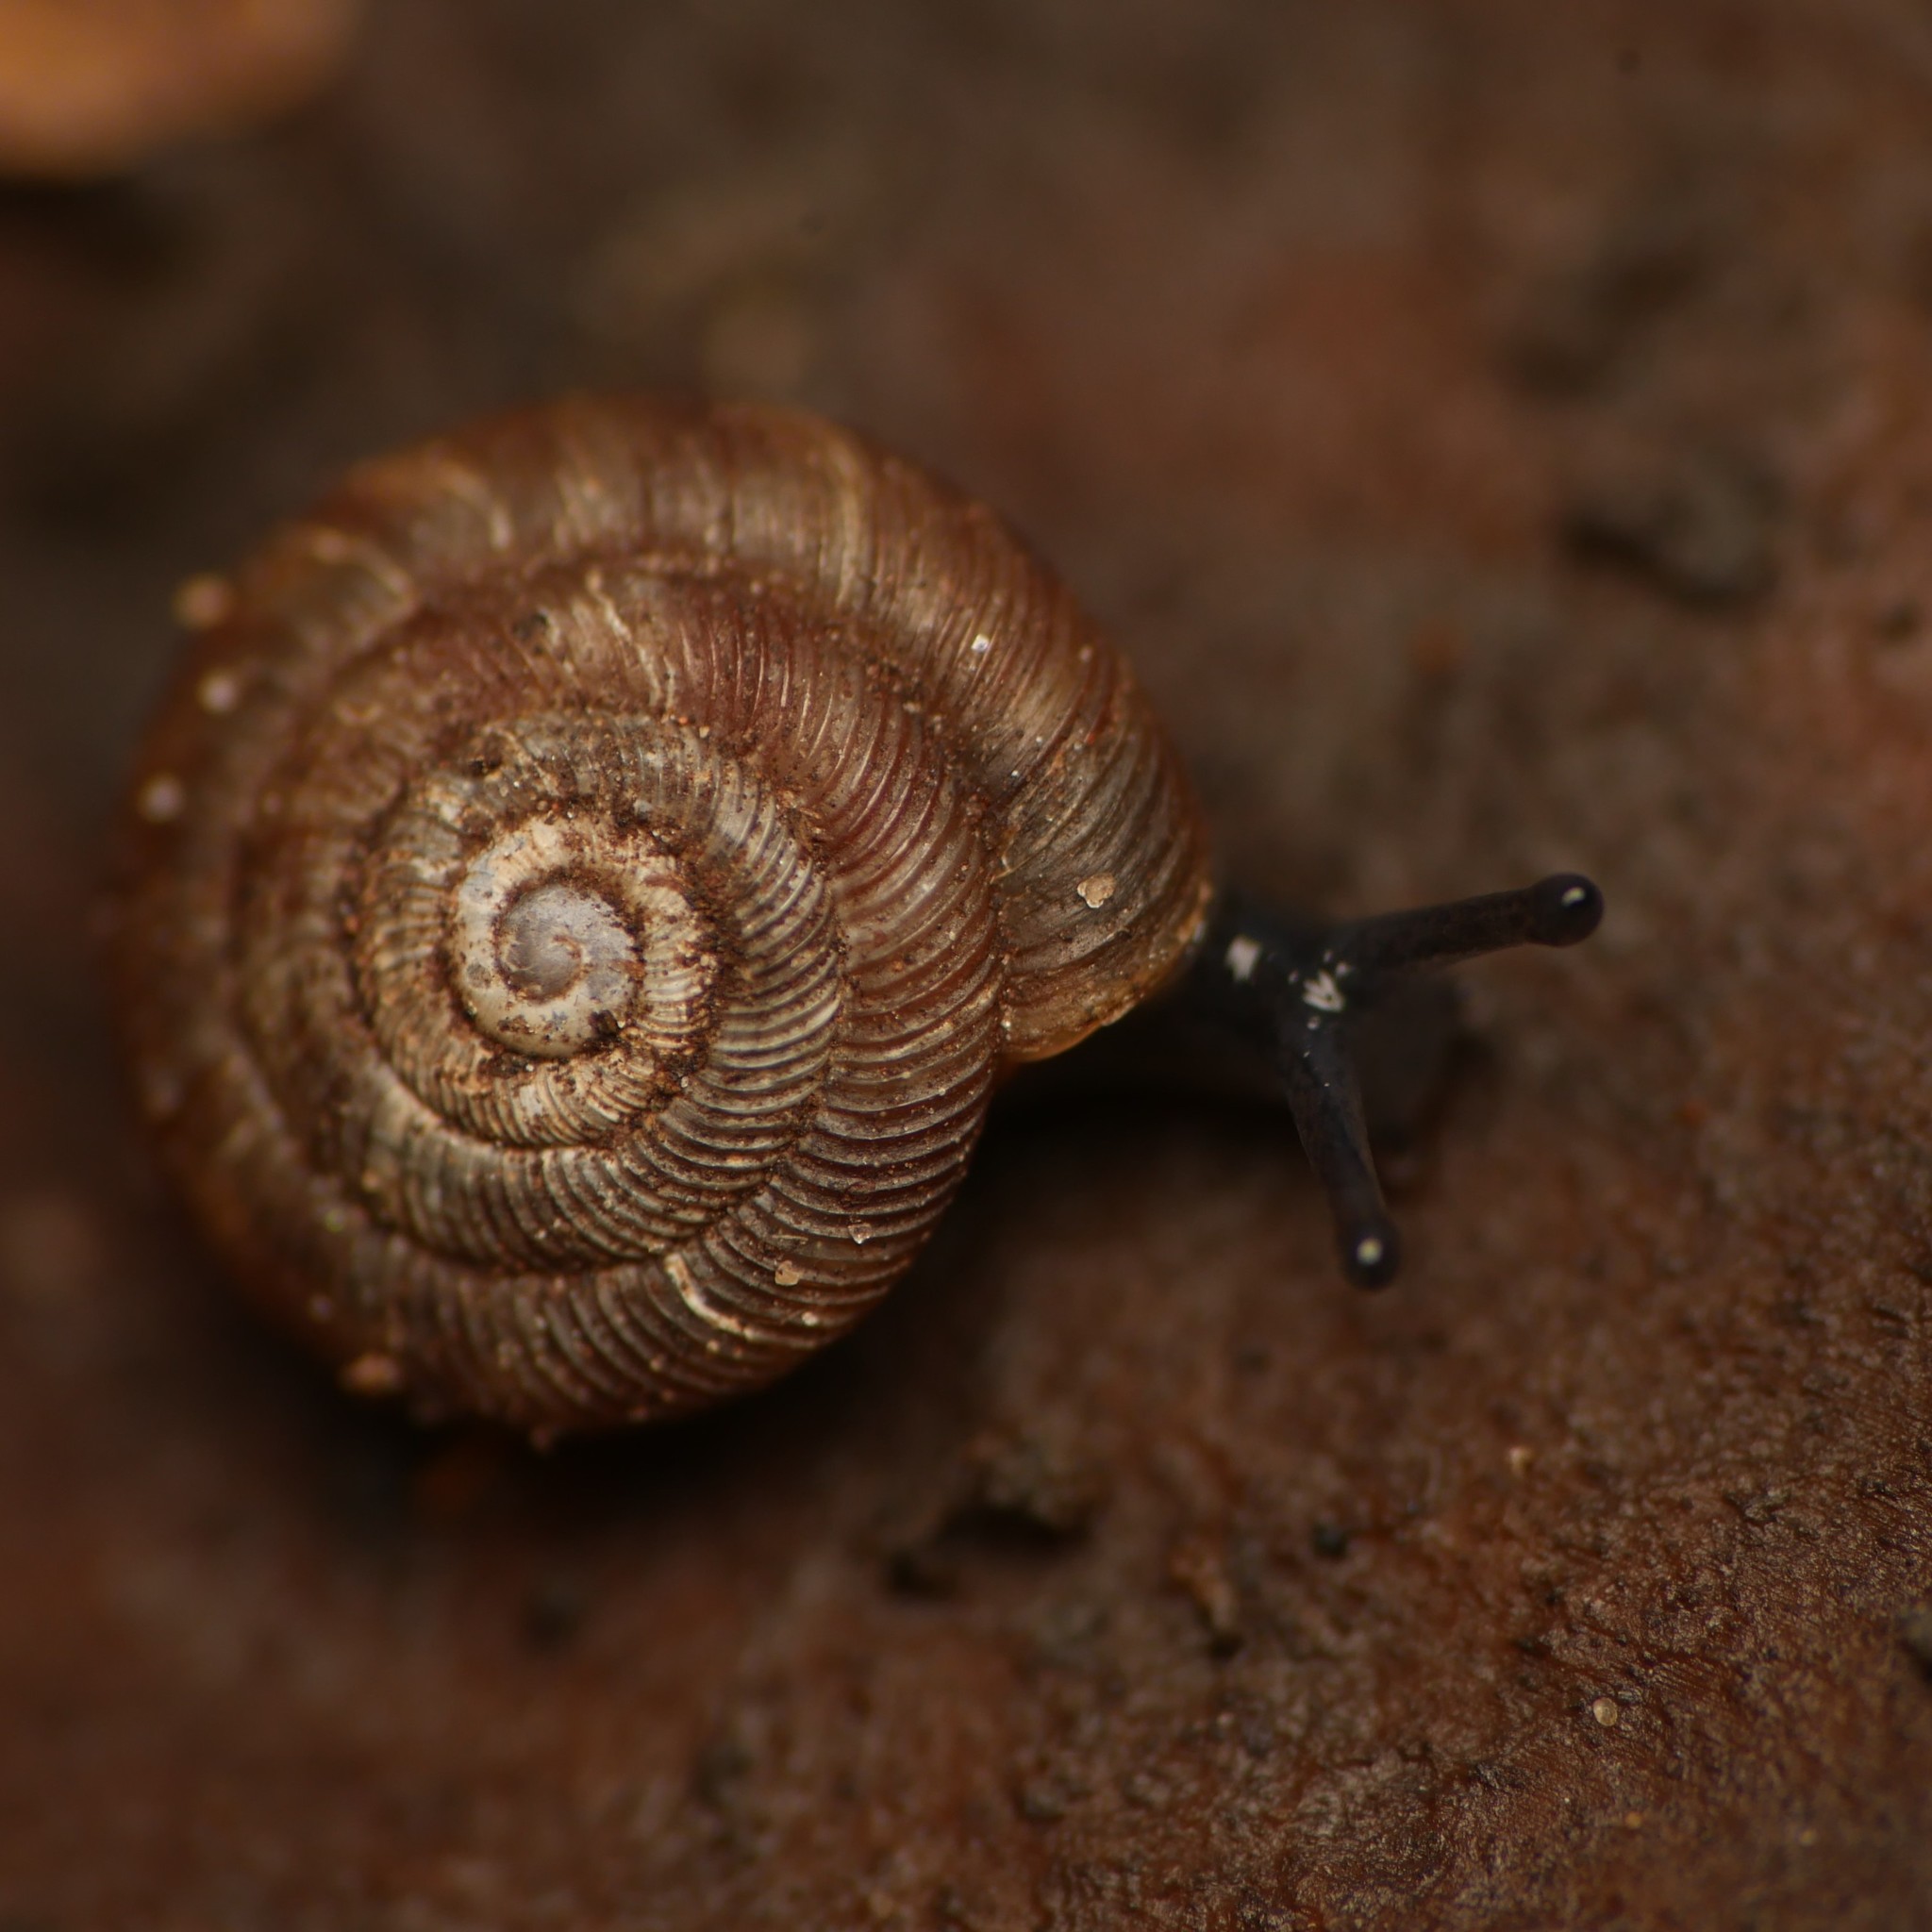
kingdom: Animalia
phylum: Mollusca
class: Gastropoda
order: Stylommatophora
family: Discidae
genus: Discus
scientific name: Discus rotundatus
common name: Rounded snail
